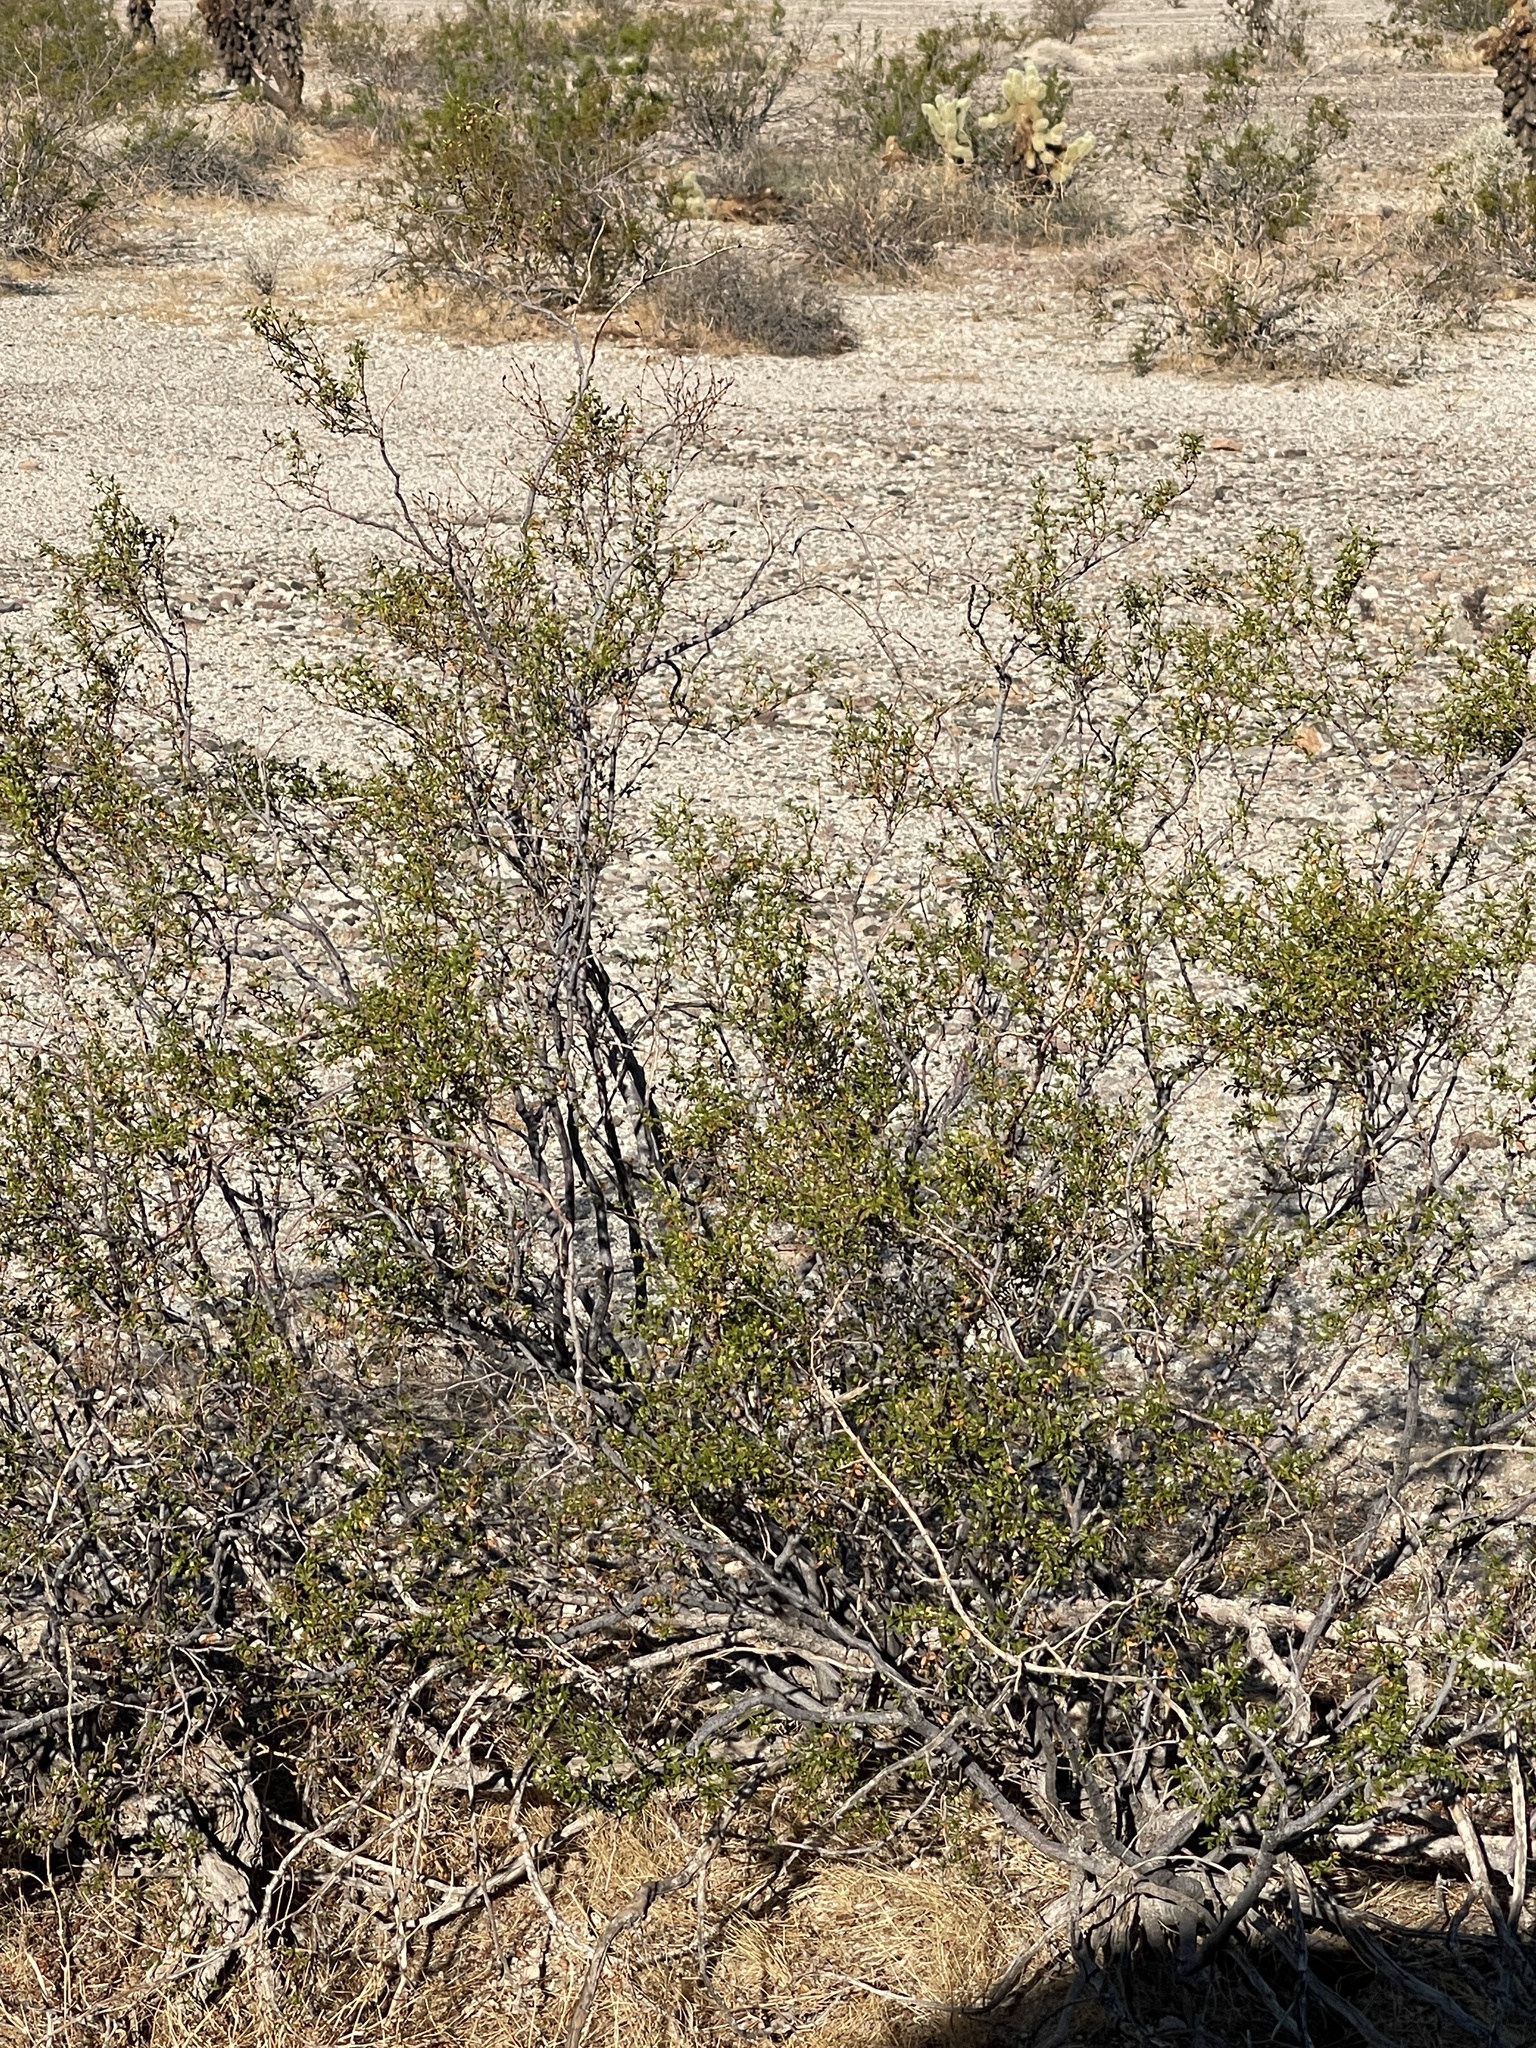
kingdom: Plantae
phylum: Tracheophyta
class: Magnoliopsida
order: Zygophyllales
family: Zygophyllaceae
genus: Larrea
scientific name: Larrea tridentata
